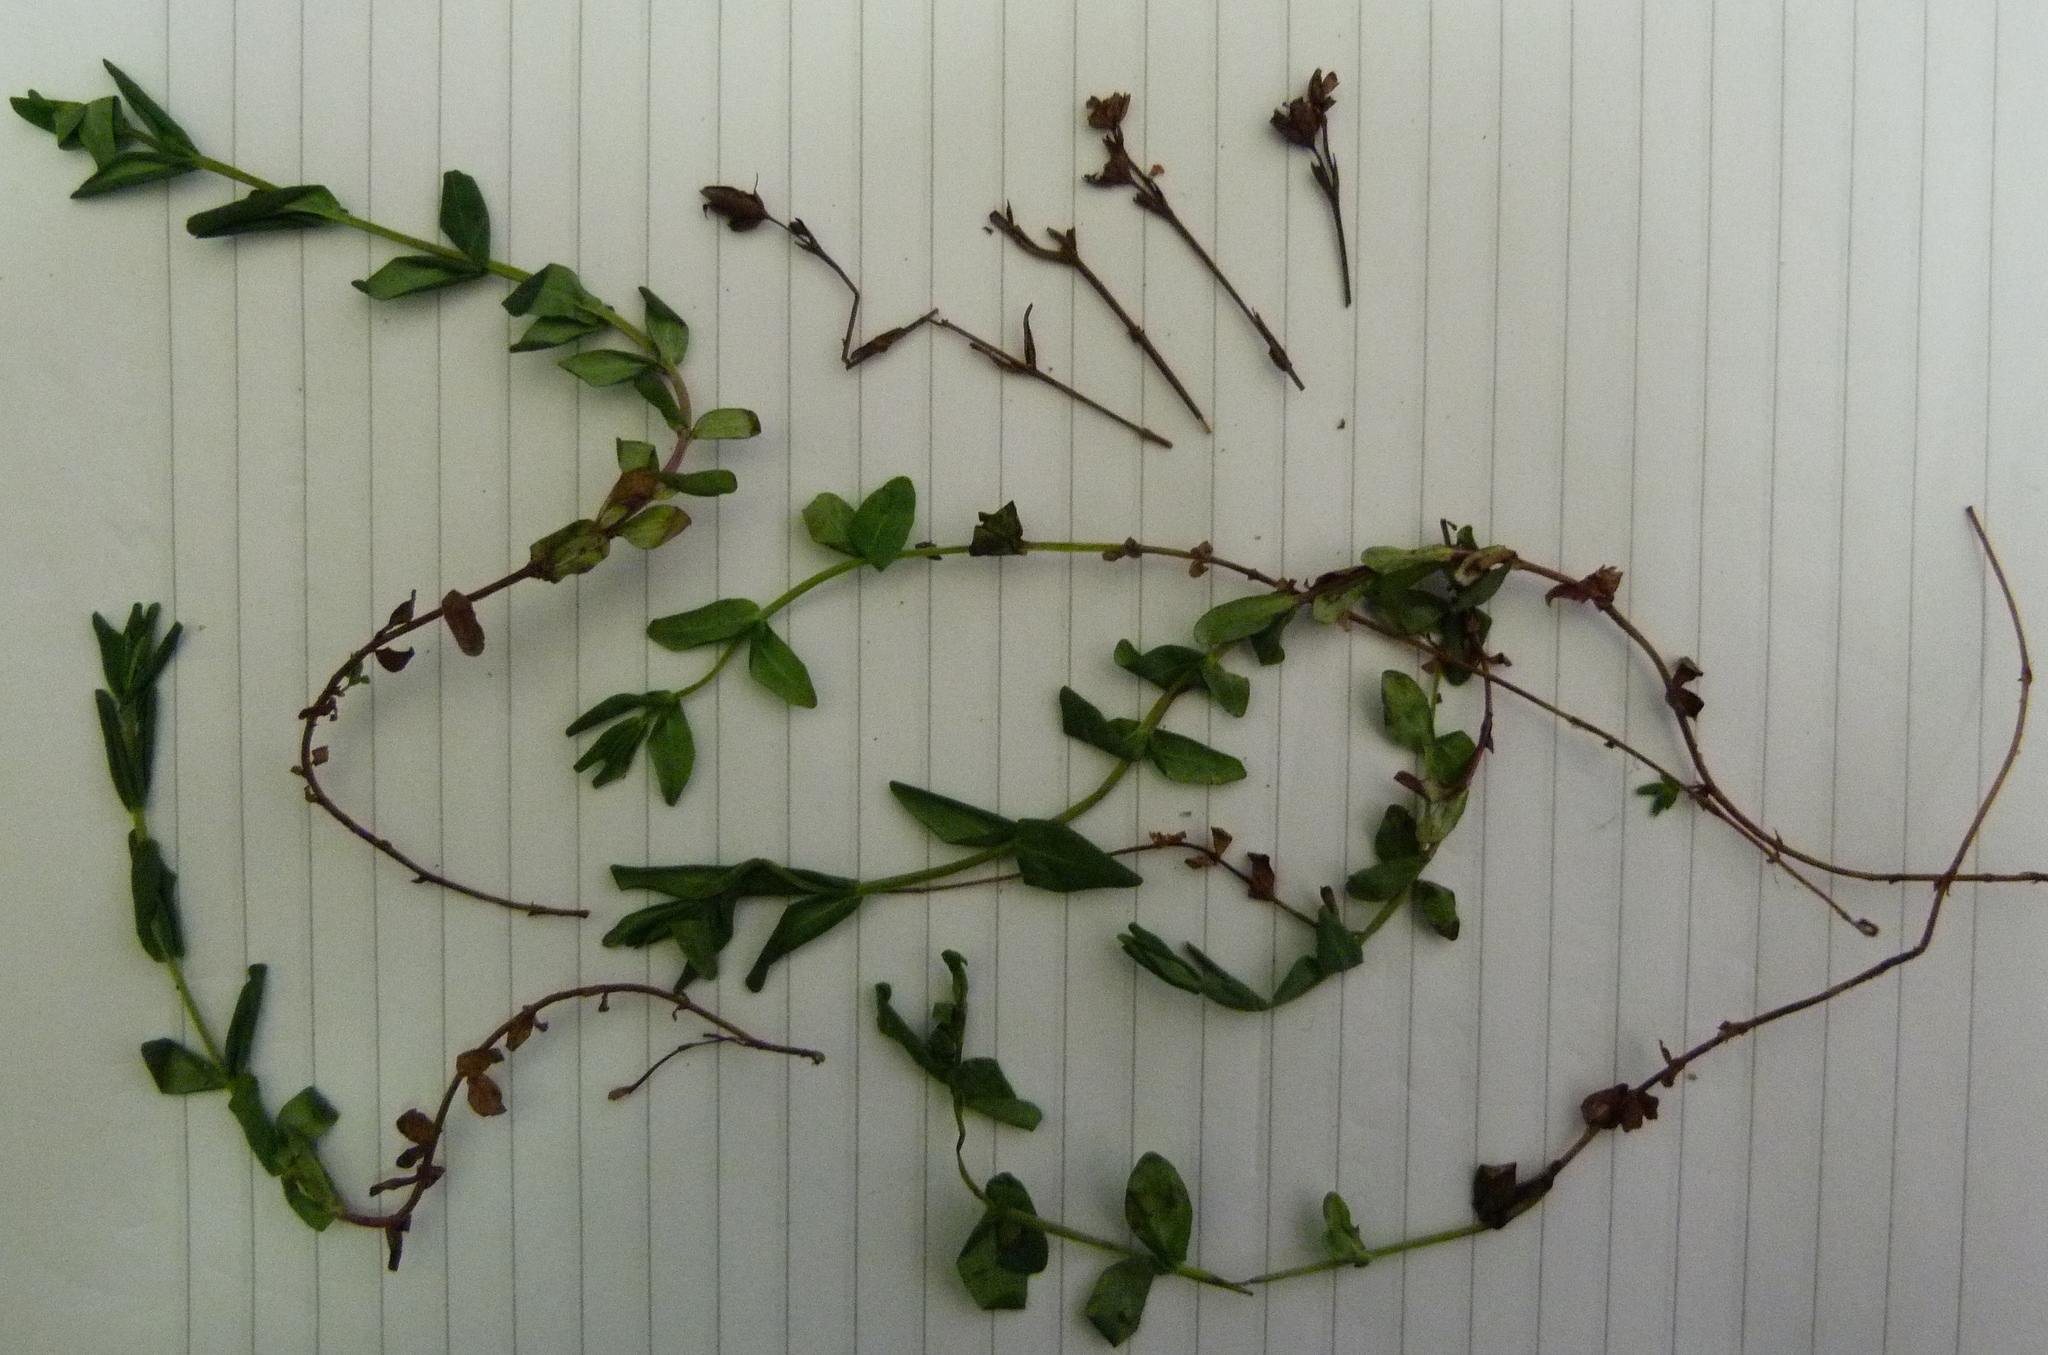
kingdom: Plantae
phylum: Tracheophyta
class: Magnoliopsida
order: Malpighiales
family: Hypericaceae
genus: Hypericum
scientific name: Hypericum involutum
